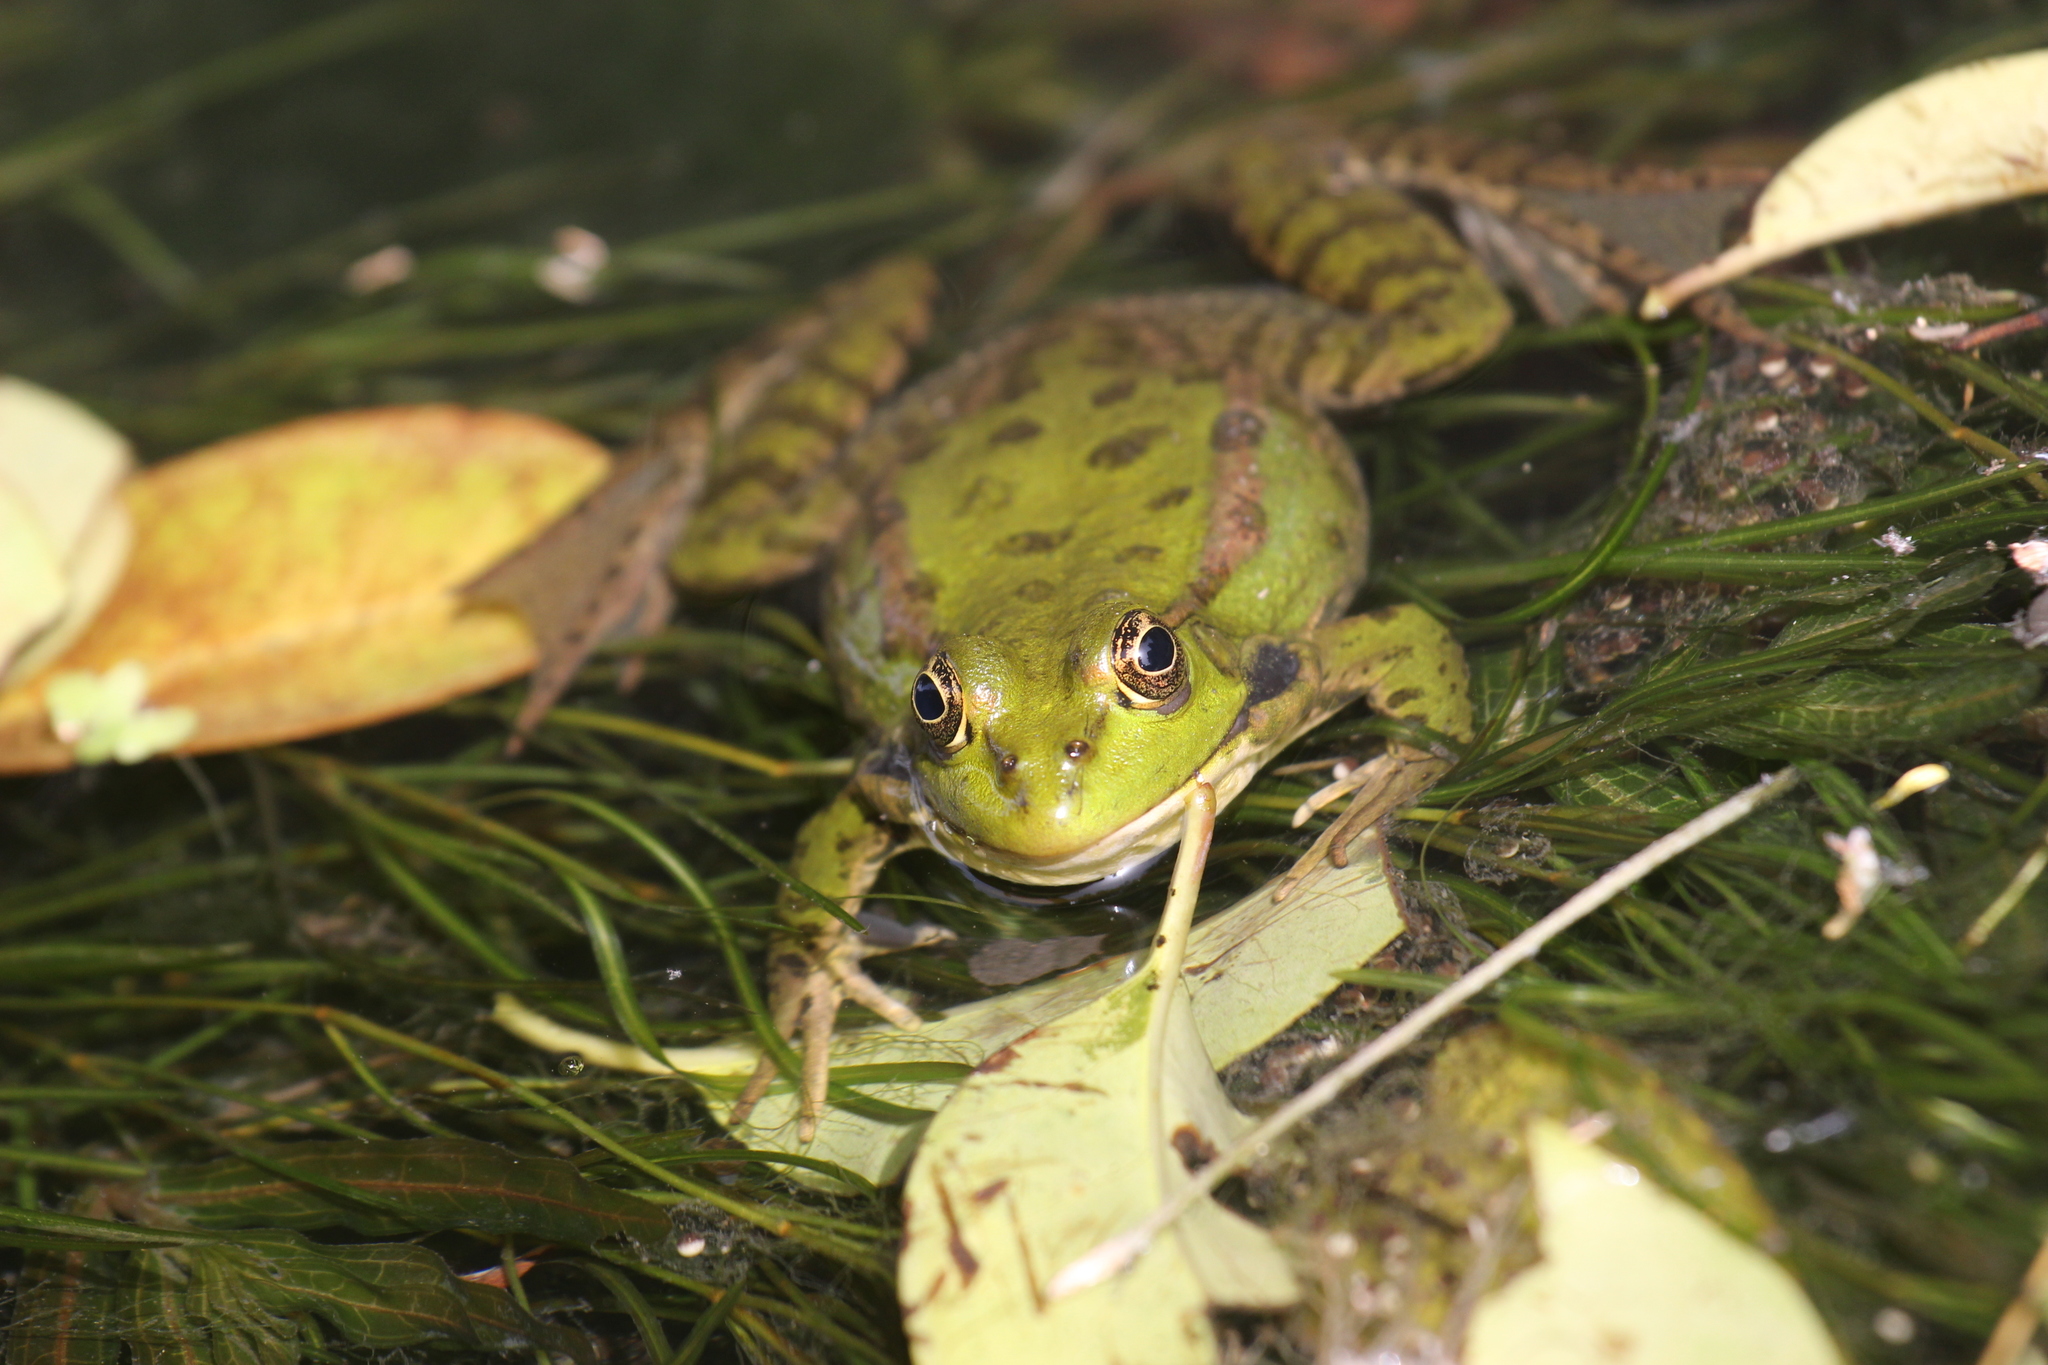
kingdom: Animalia
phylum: Chordata
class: Amphibia
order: Anura
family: Ranidae
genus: Pelophylax
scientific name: Pelophylax ridibundus
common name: Marsh frog
